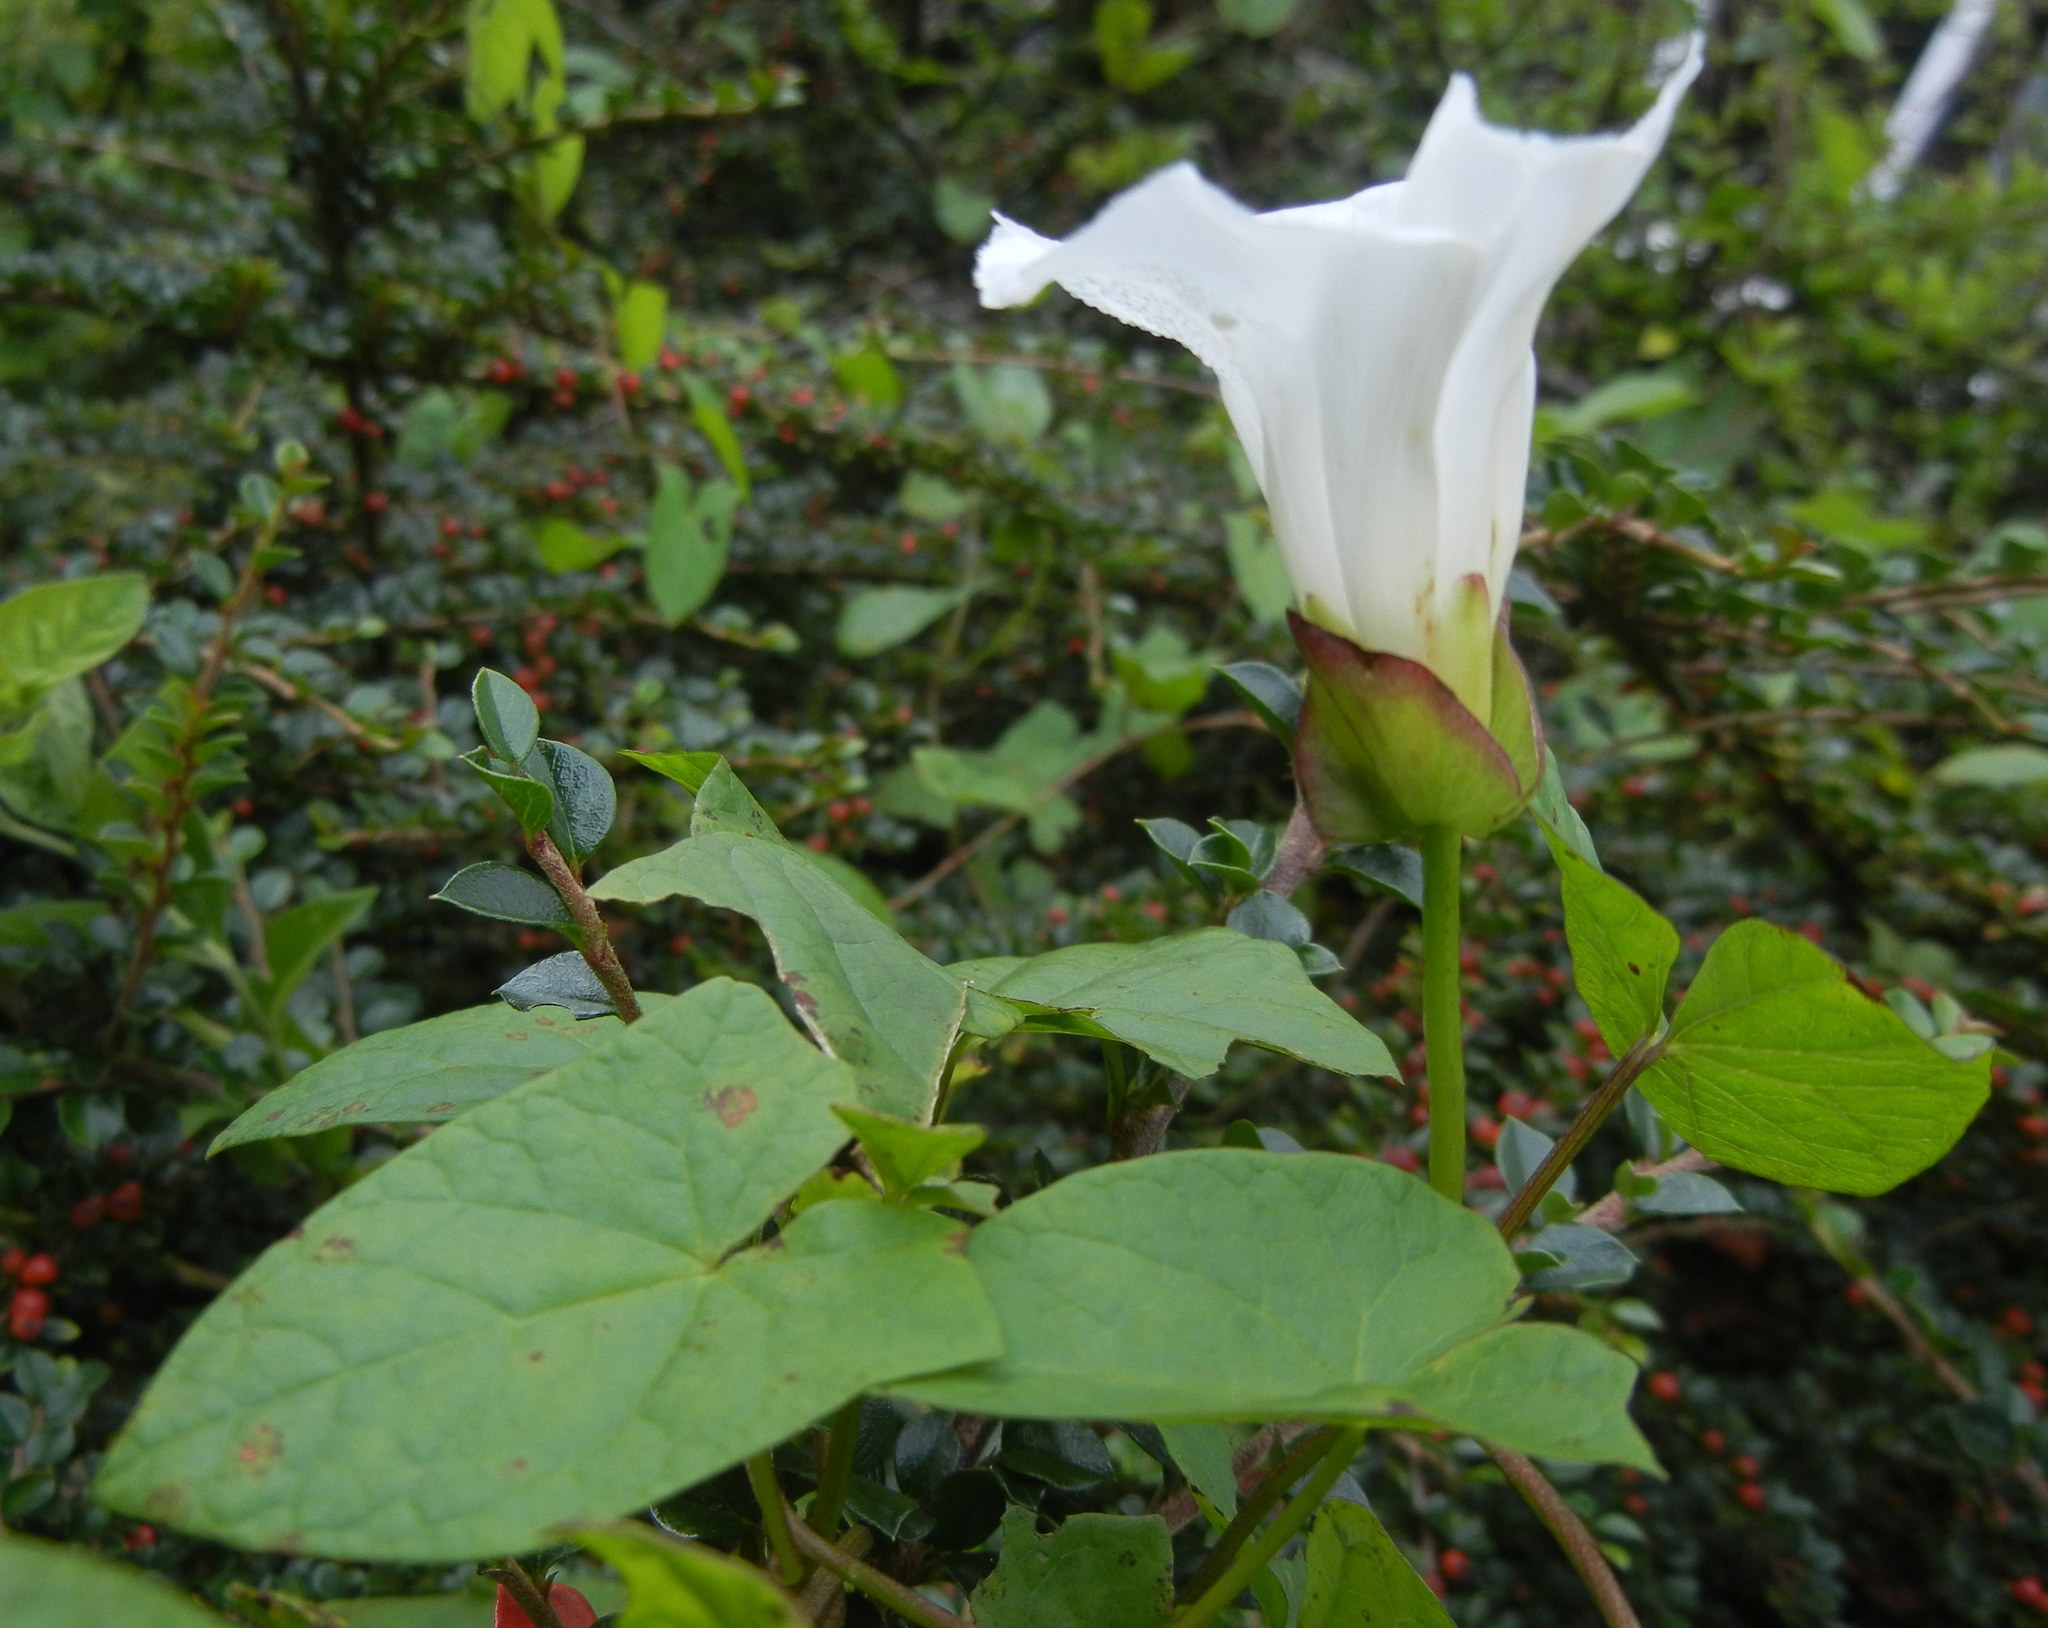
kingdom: Plantae
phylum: Tracheophyta
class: Magnoliopsida
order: Solanales
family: Convolvulaceae
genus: Calystegia
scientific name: Calystegia sepium
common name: Hedge bindweed
